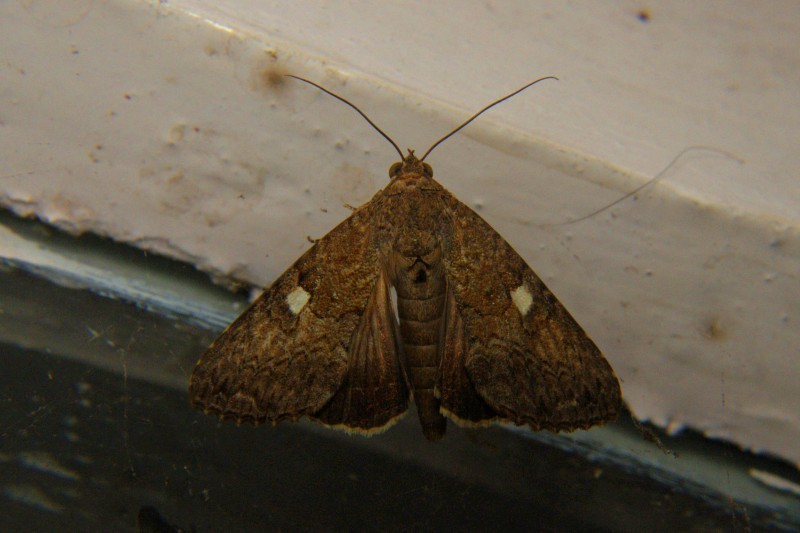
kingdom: Animalia
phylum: Arthropoda
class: Insecta
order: Lepidoptera
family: Euteliidae
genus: Odontodes
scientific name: Odontodes aleuca
